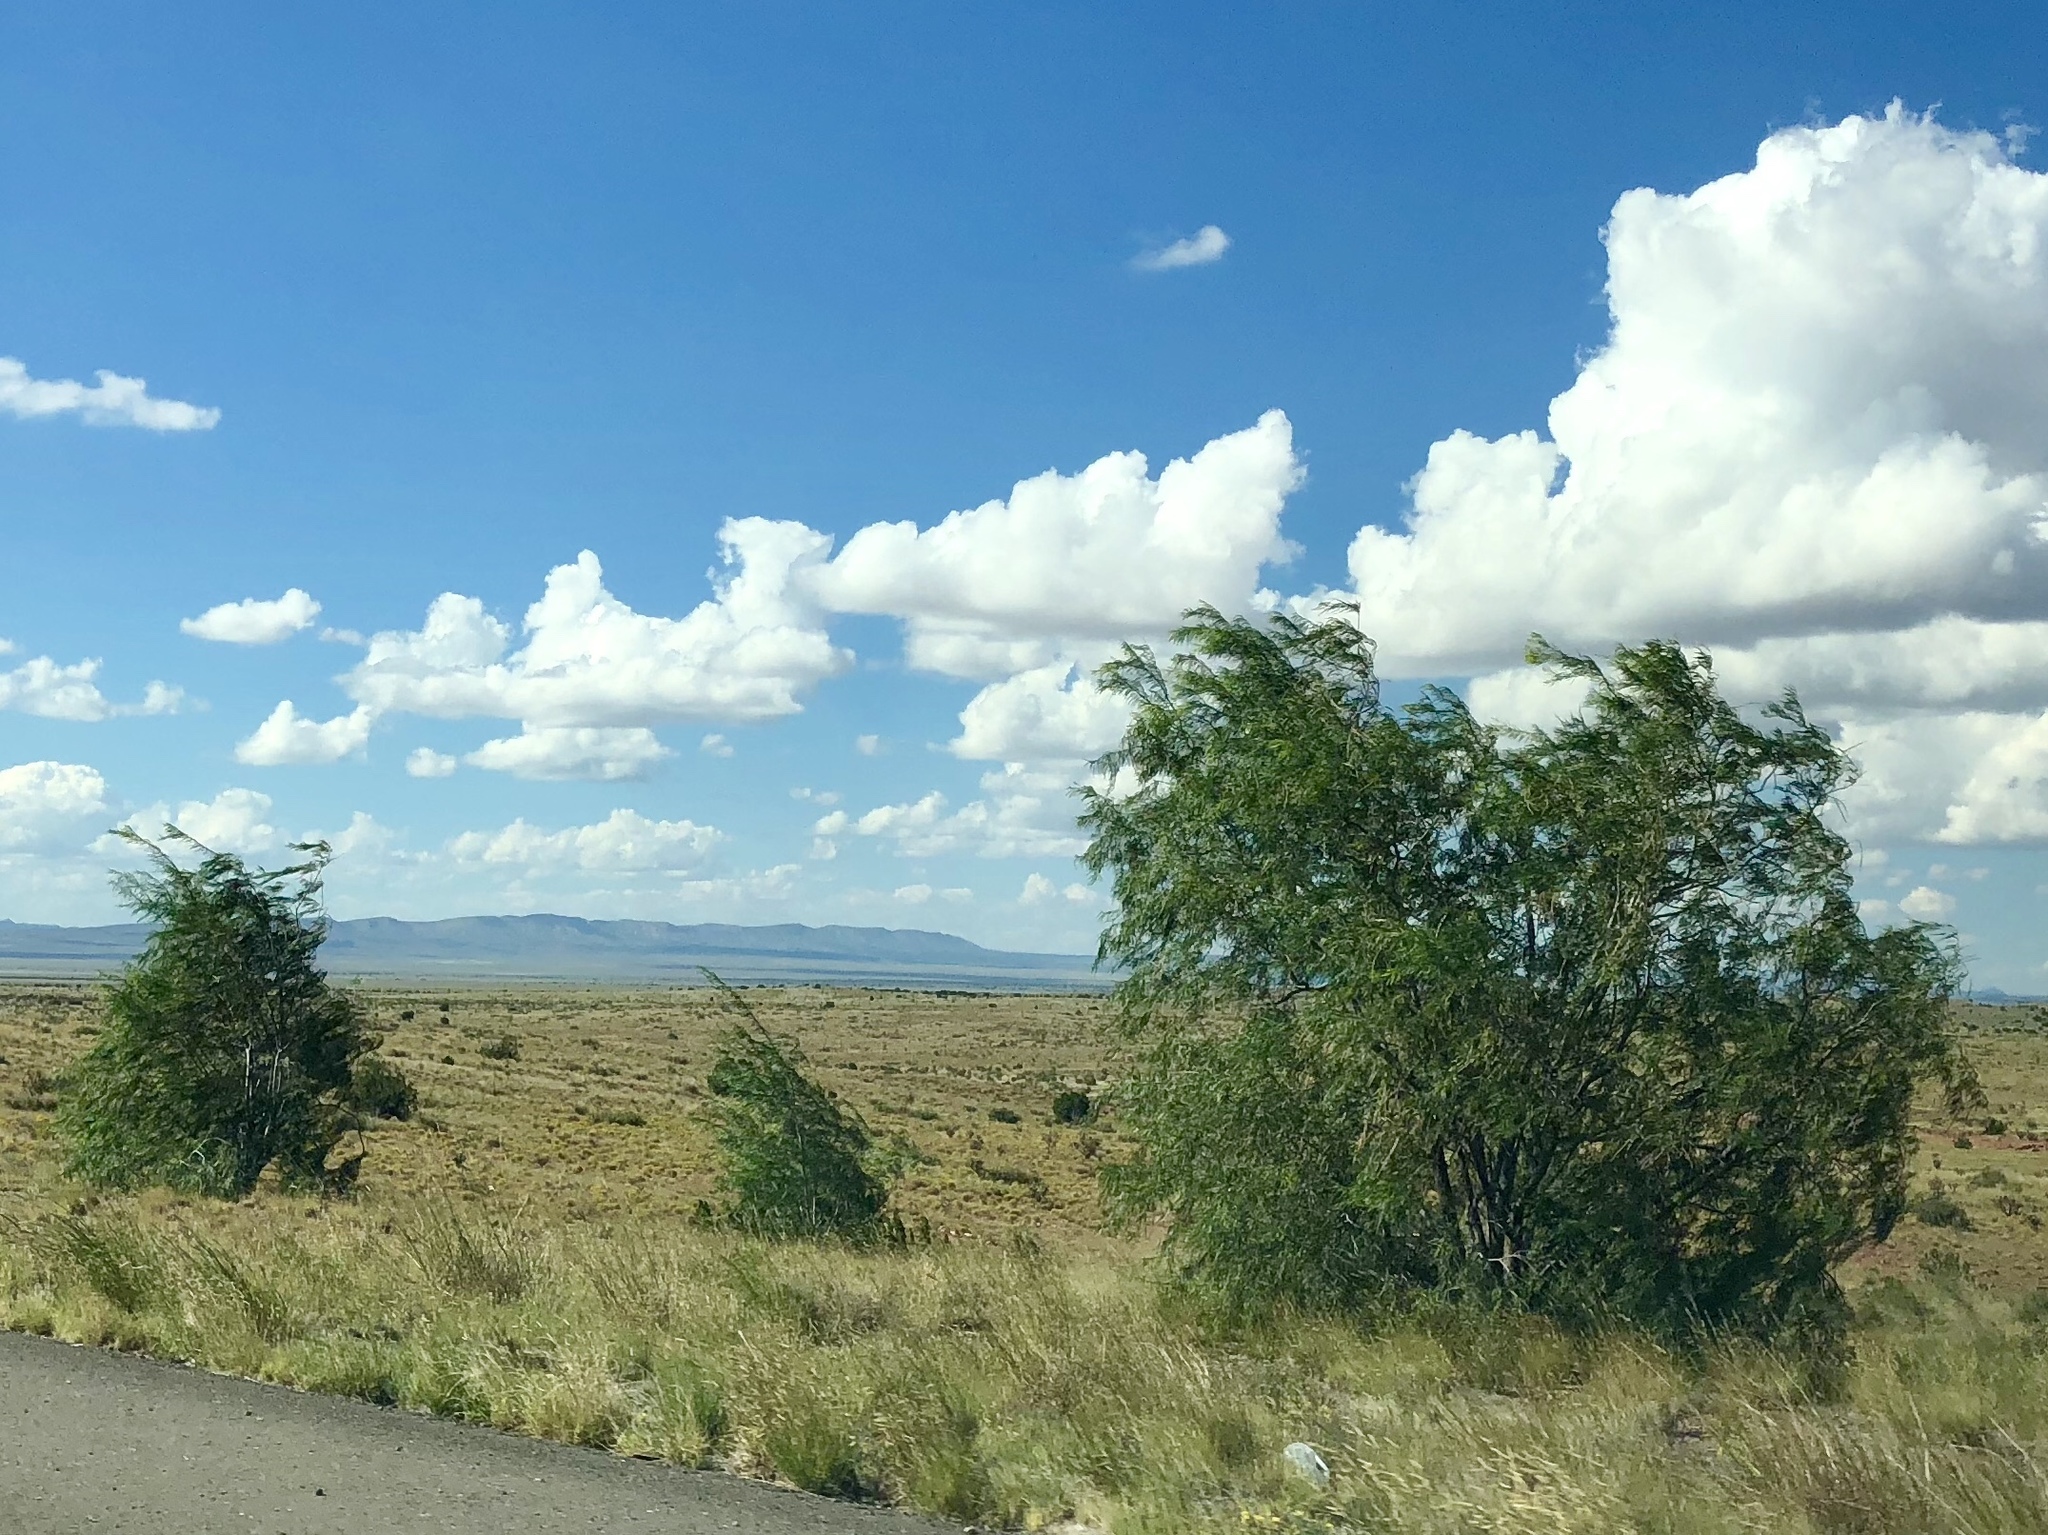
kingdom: Plantae
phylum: Tracheophyta
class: Magnoliopsida
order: Lamiales
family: Bignoniaceae
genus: Chilopsis
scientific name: Chilopsis linearis
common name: Desert-willow
